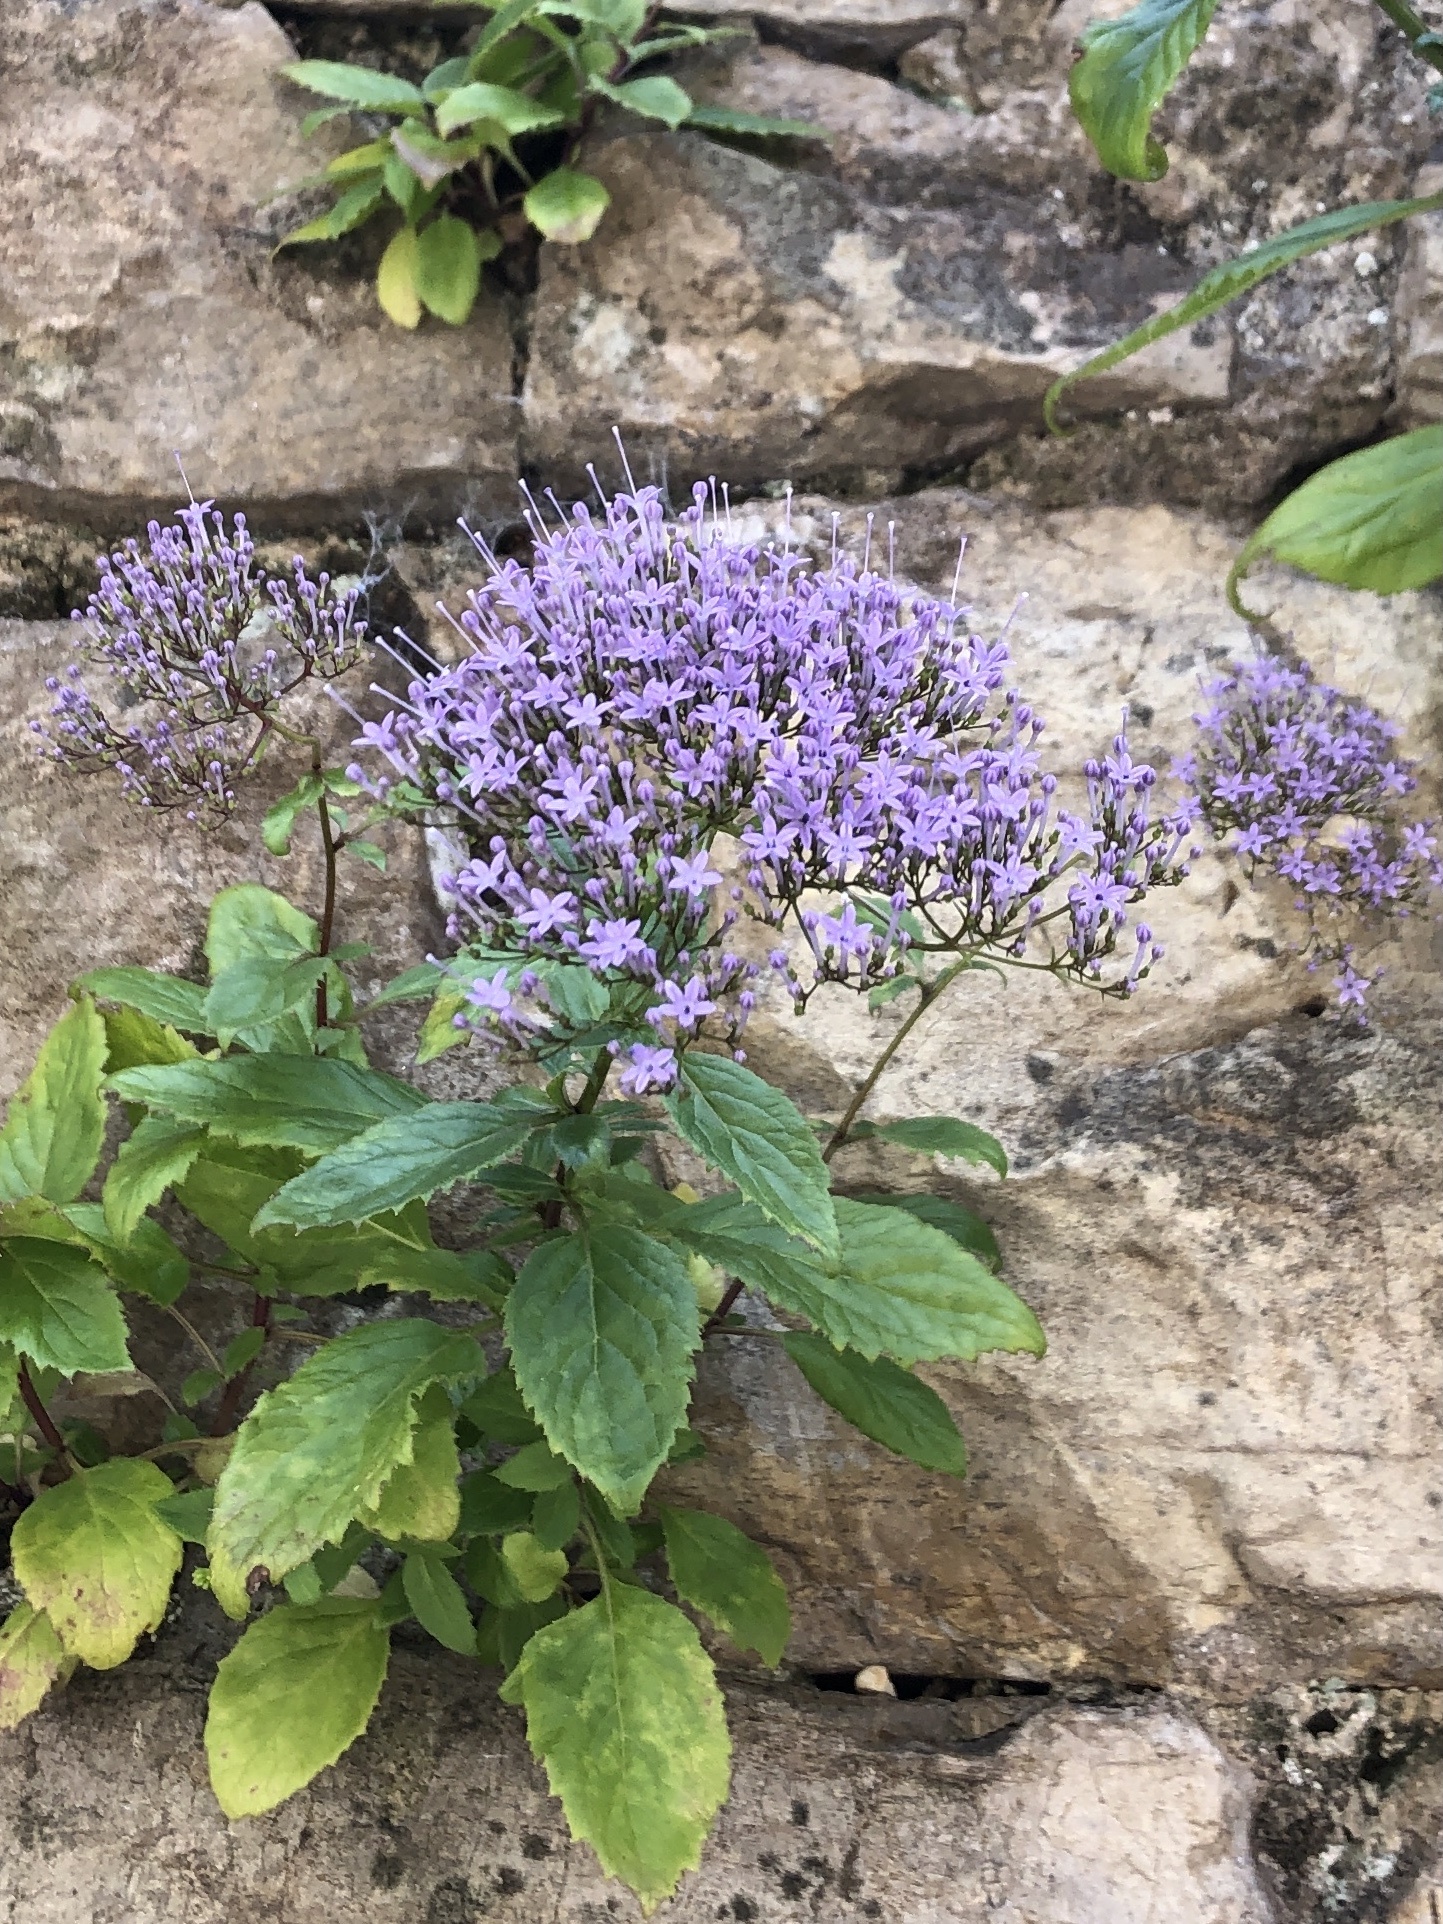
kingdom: Plantae
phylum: Tracheophyta
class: Magnoliopsida
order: Asterales
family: Campanulaceae
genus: Trachelium
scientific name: Trachelium caeruleum
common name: Throatwort
